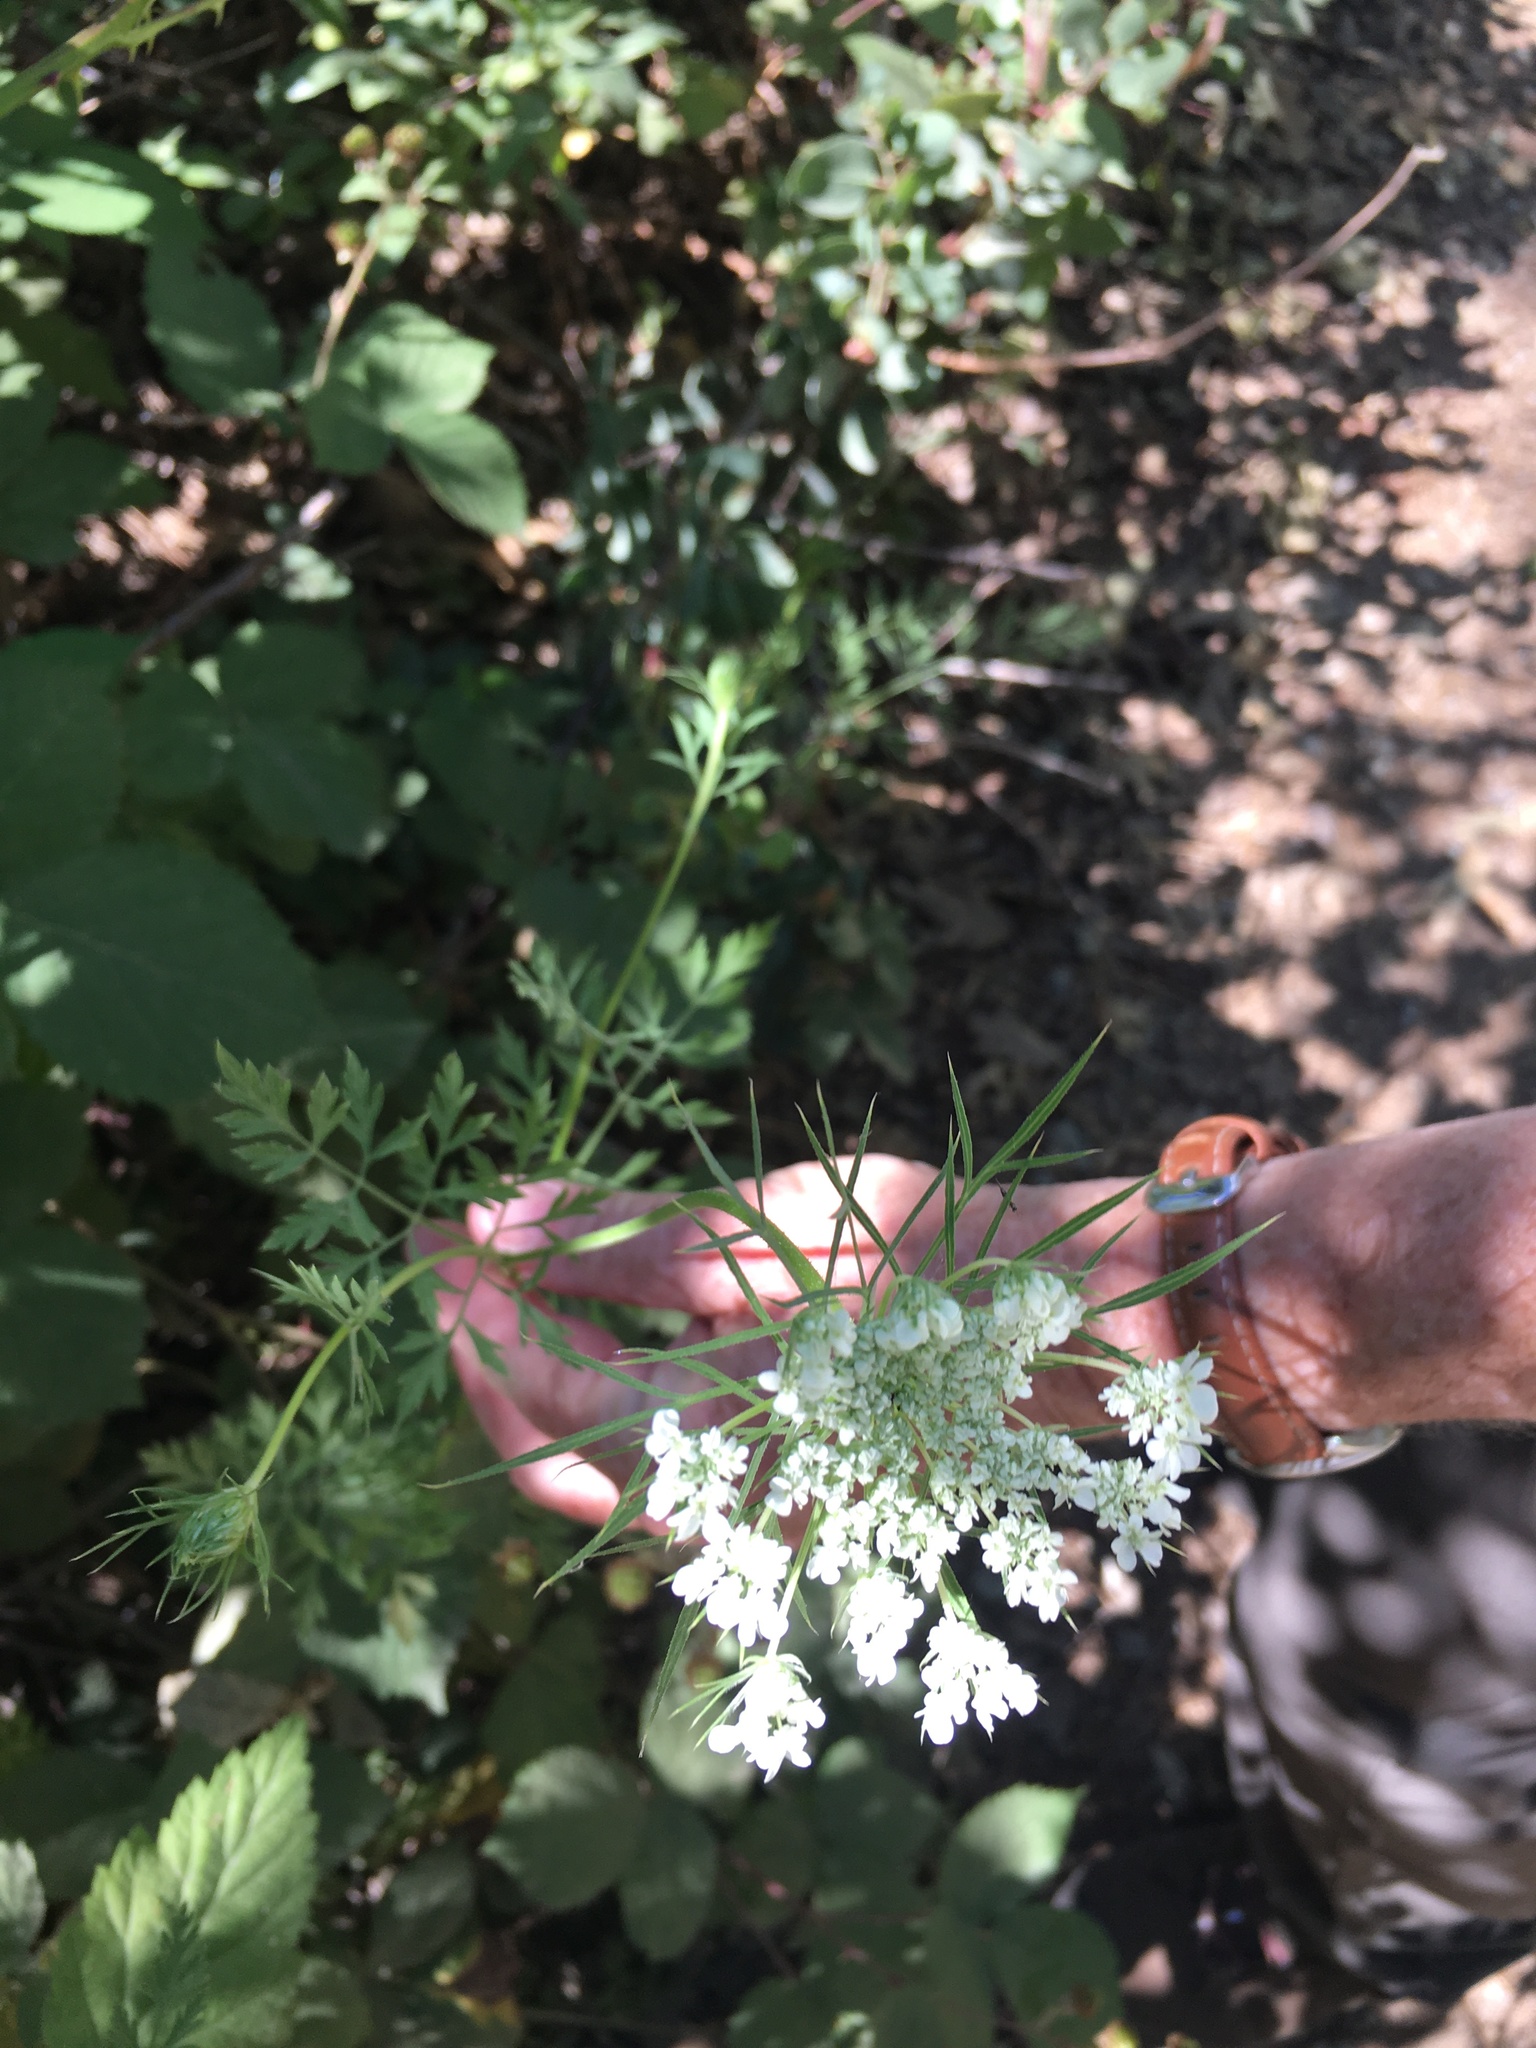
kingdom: Plantae
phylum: Tracheophyta
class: Magnoliopsida
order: Apiales
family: Apiaceae
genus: Daucus
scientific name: Daucus carota
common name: Wild carrot
